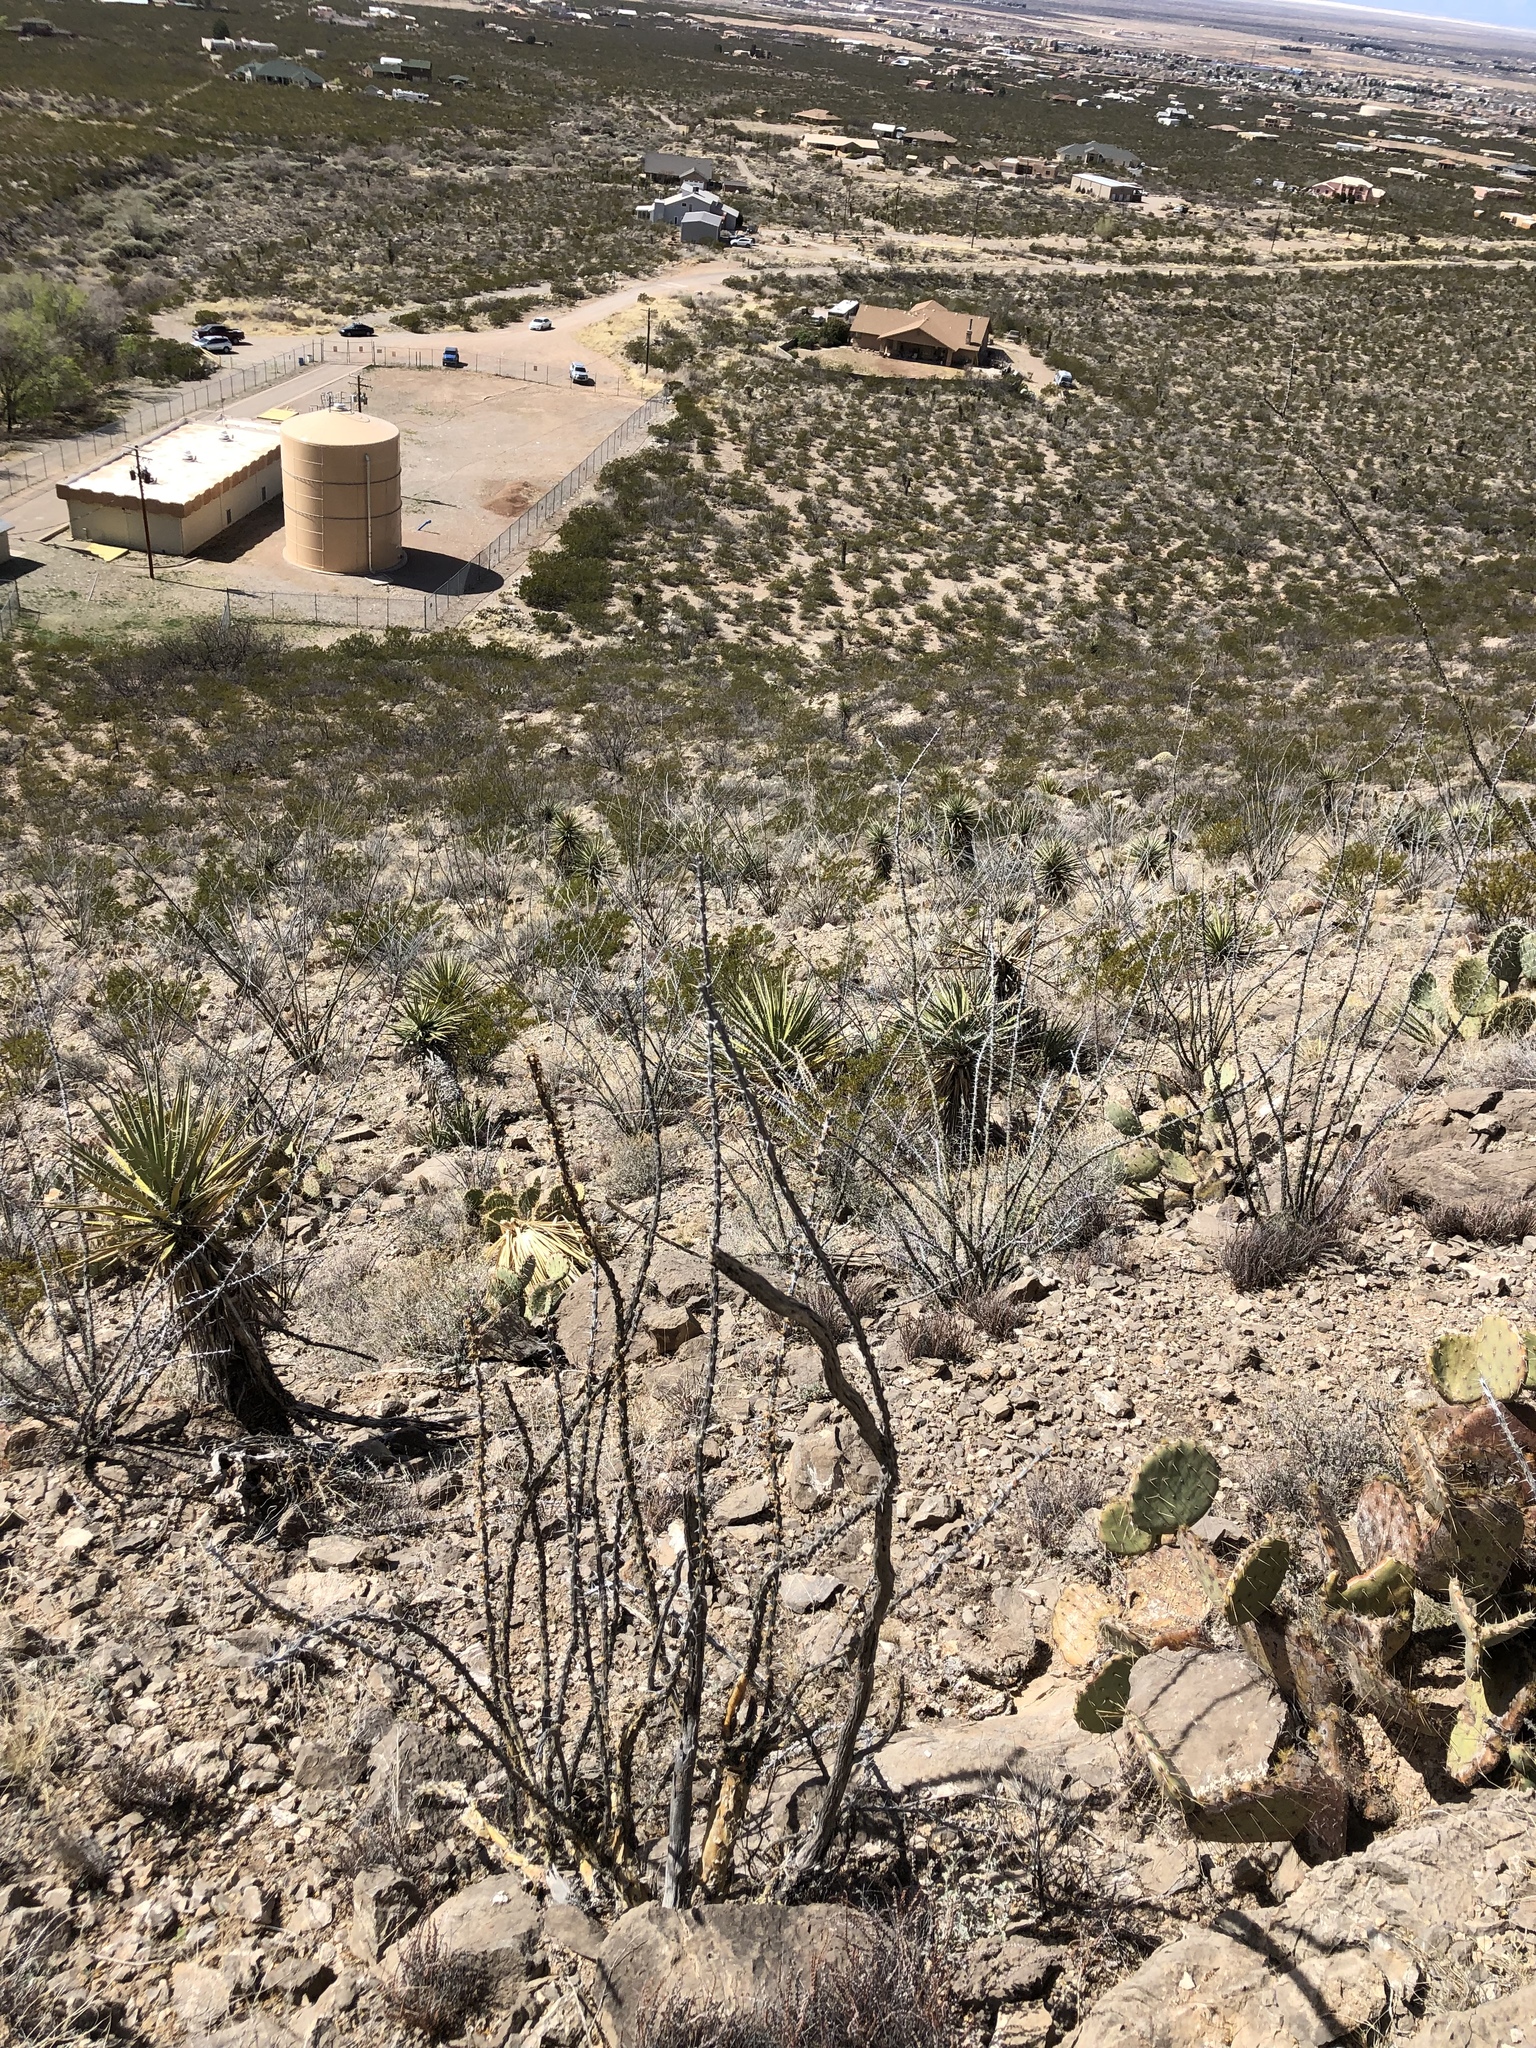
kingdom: Plantae
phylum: Tracheophyta
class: Magnoliopsida
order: Ericales
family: Fouquieriaceae
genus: Fouquieria
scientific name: Fouquieria splendens
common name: Vine-cactus
